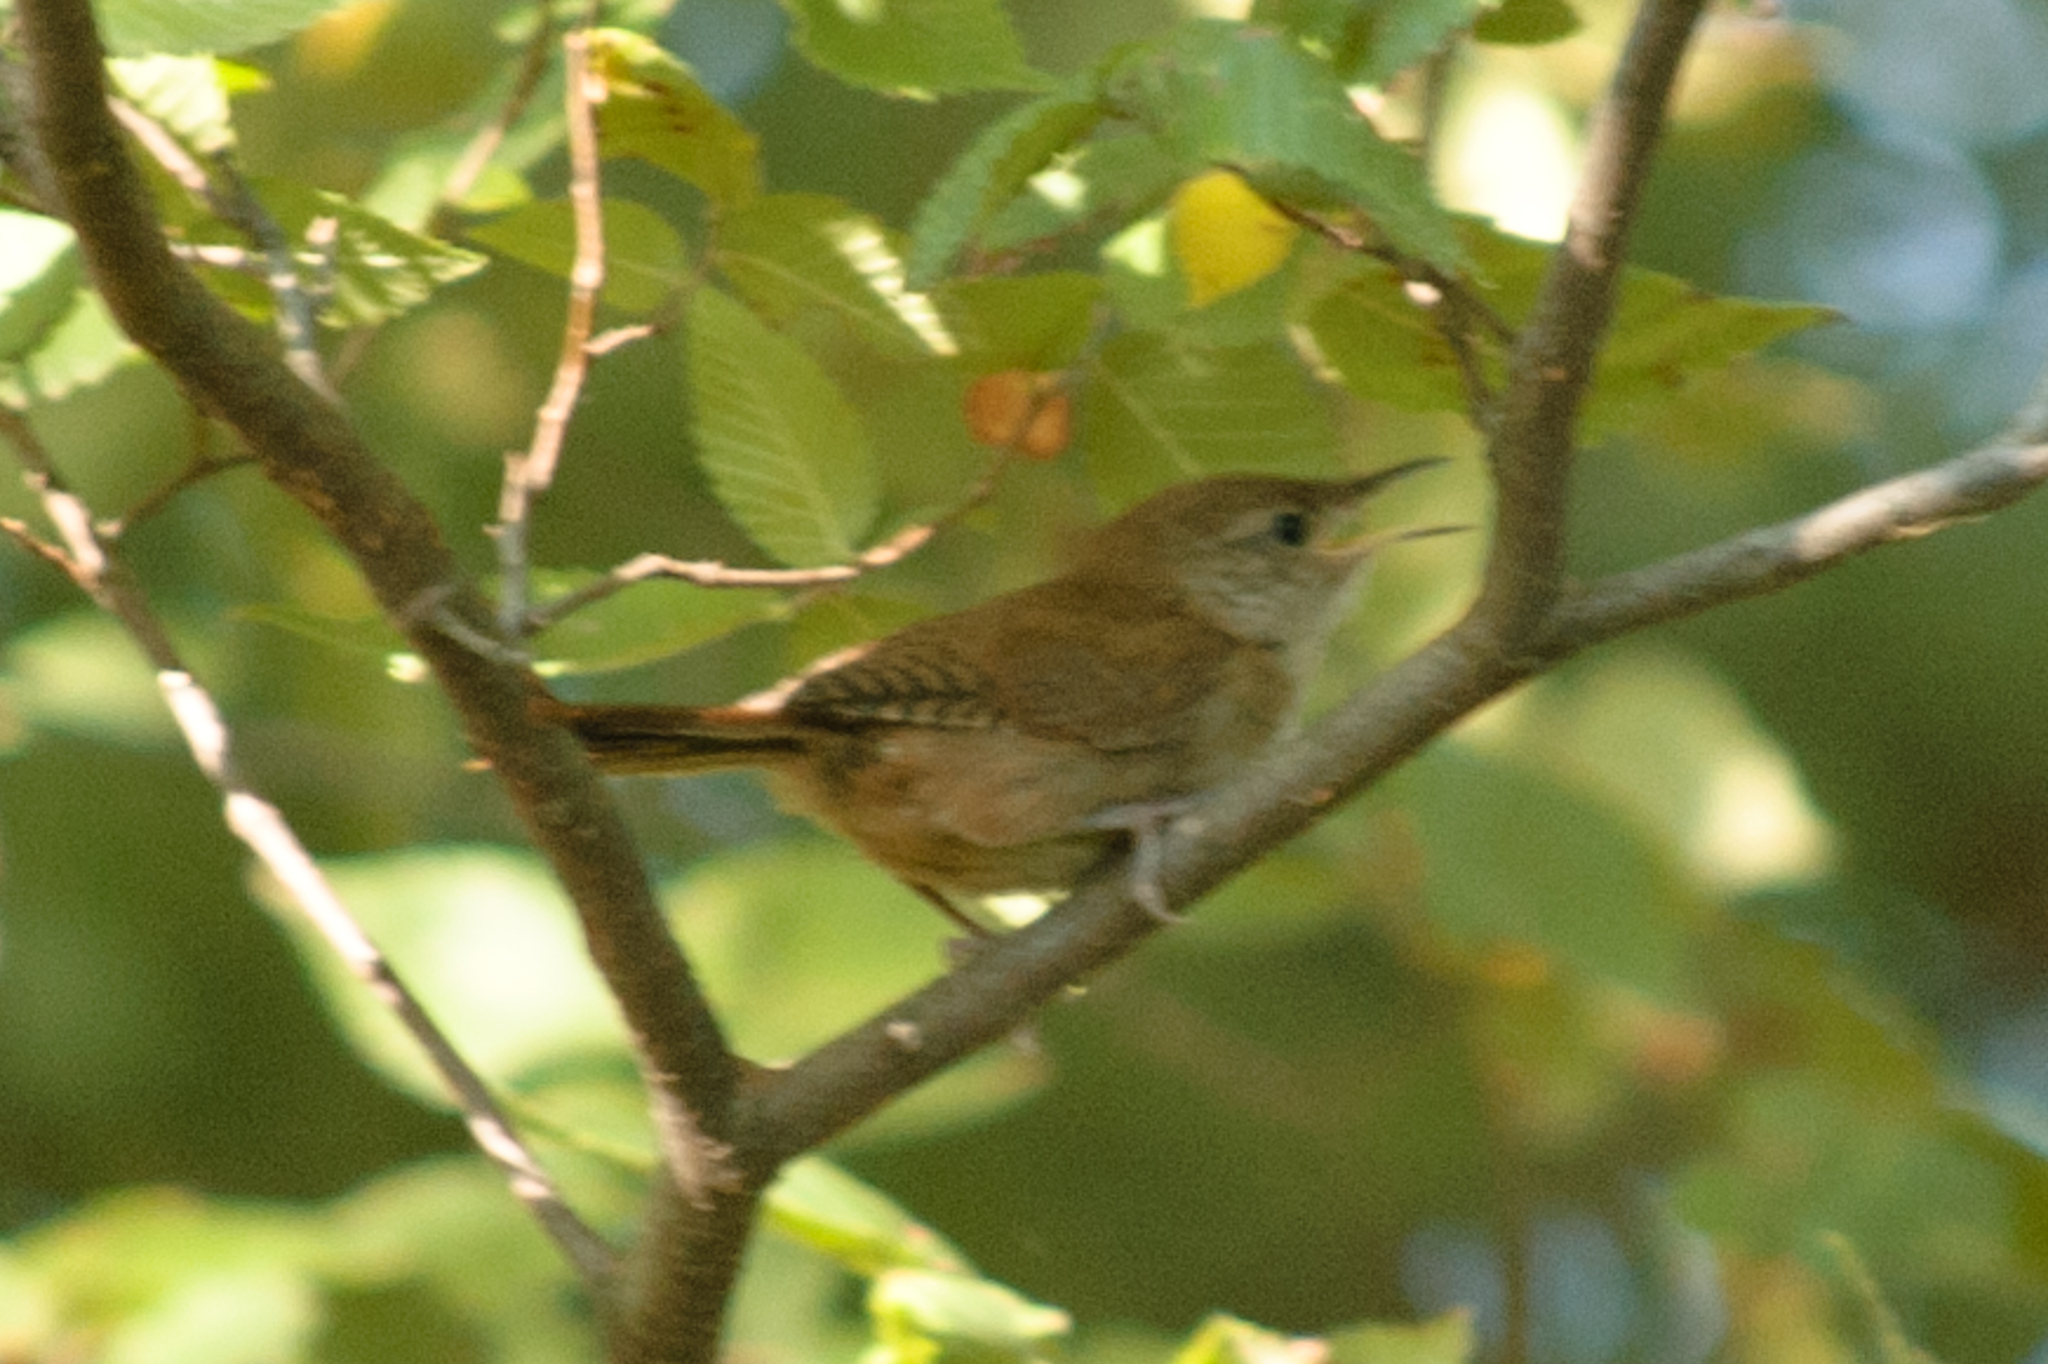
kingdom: Animalia
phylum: Chordata
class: Aves
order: Passeriformes
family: Troglodytidae
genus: Troglodytes
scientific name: Troglodytes aedon
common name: House wren
